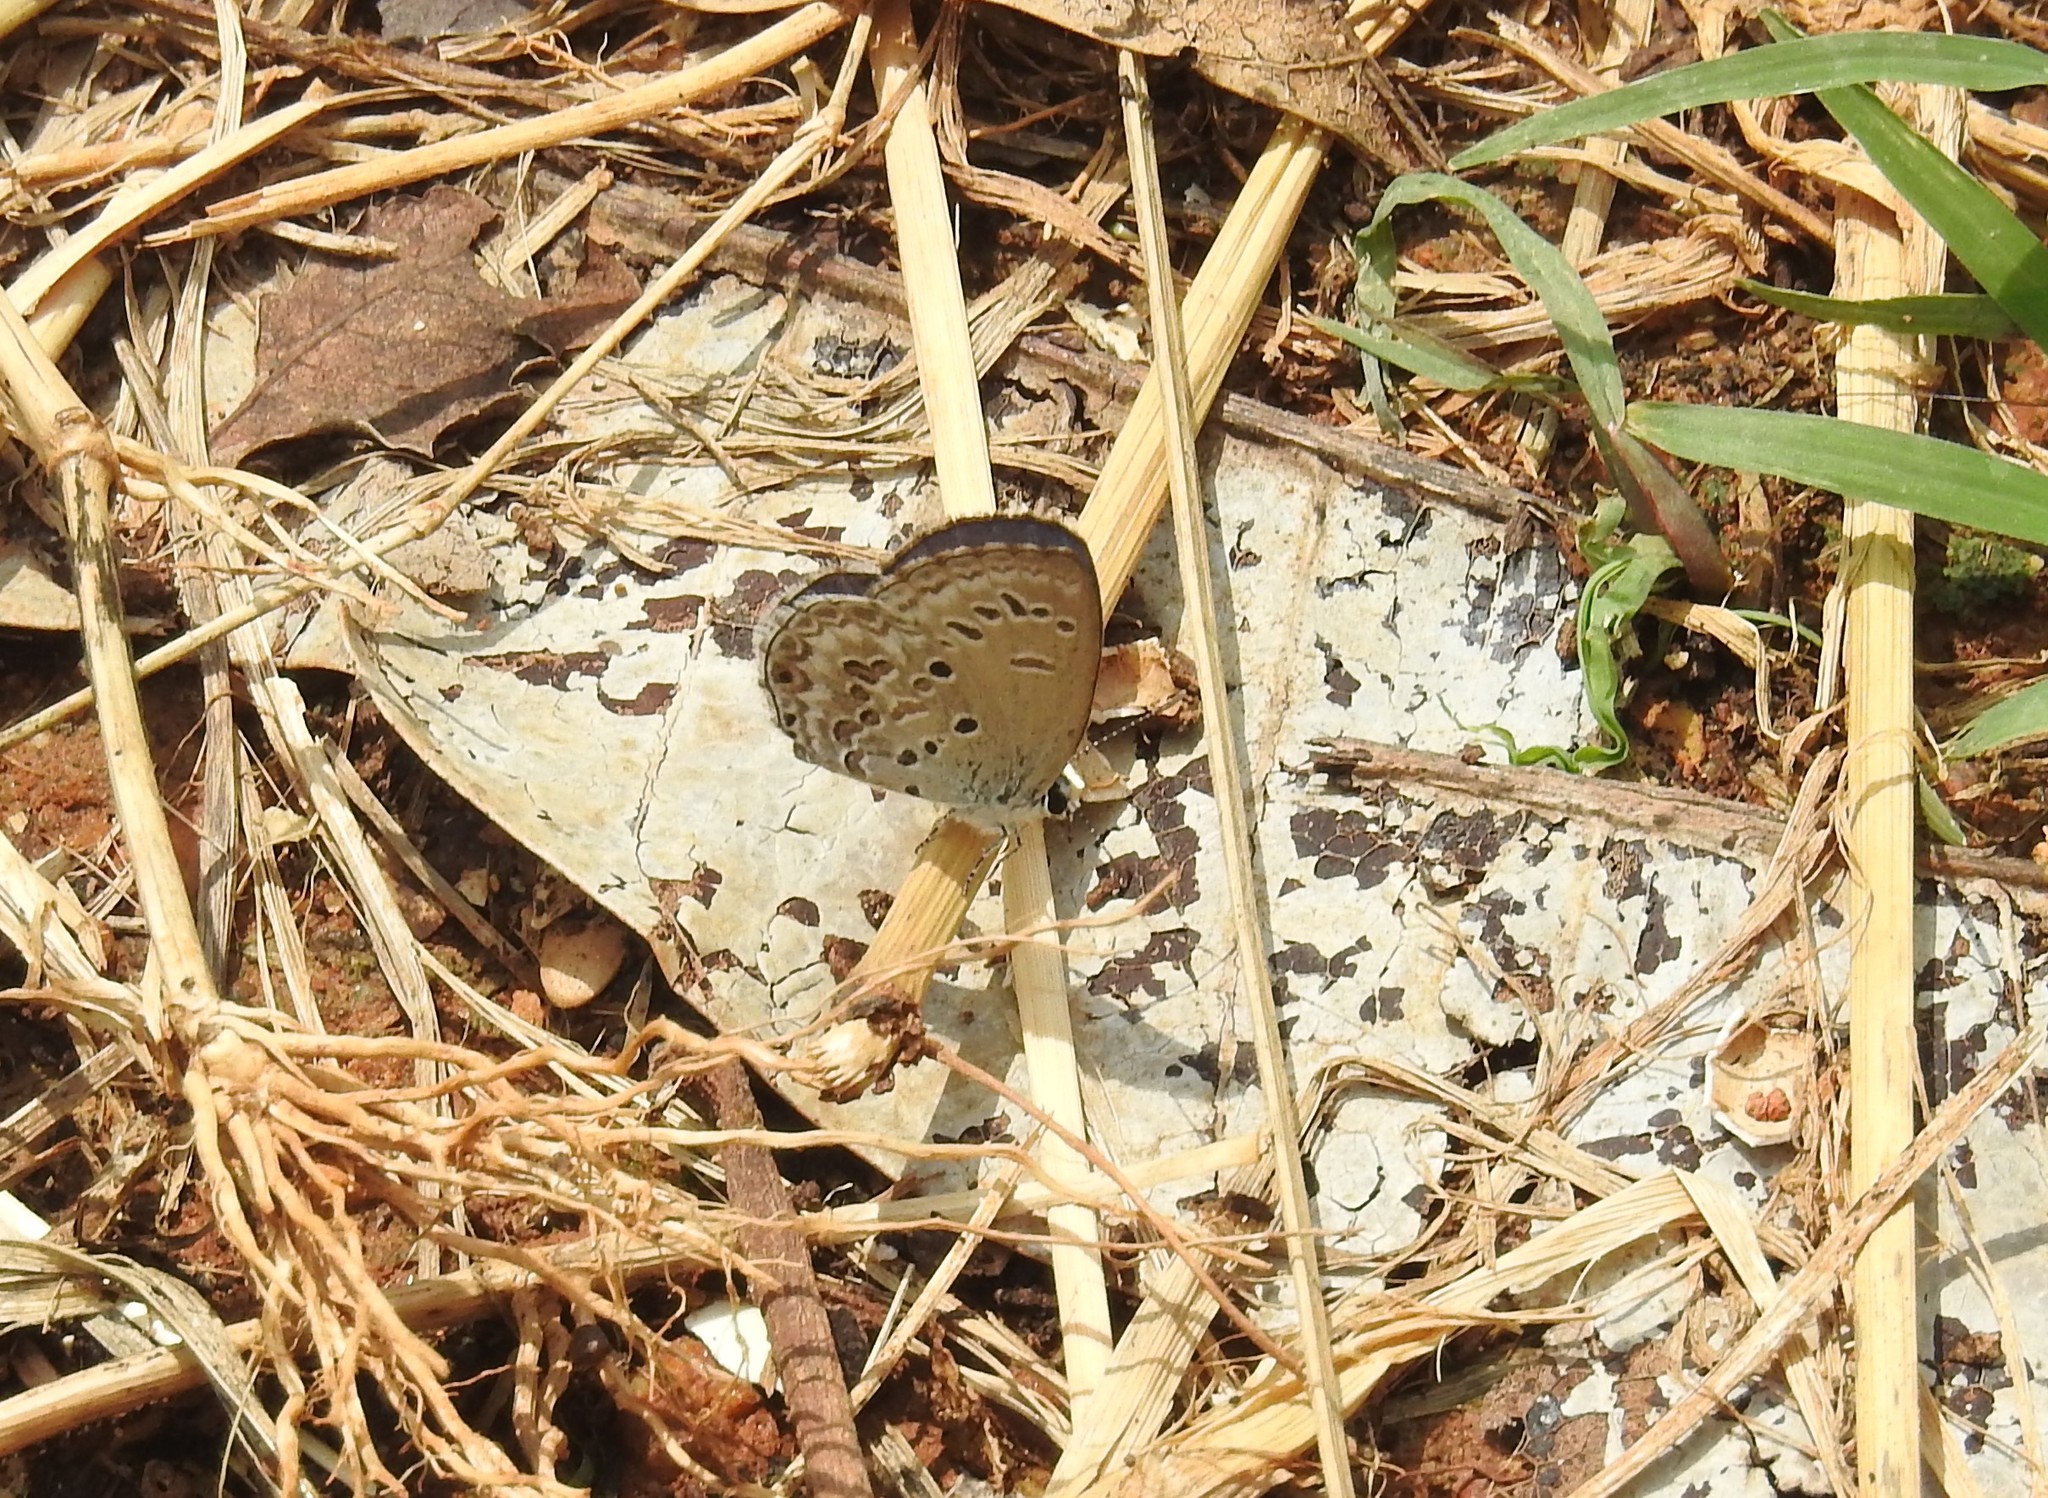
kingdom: Animalia
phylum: Arthropoda
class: Insecta
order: Lepidoptera
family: Lycaenidae
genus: Chilades
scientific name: Chilades laius
